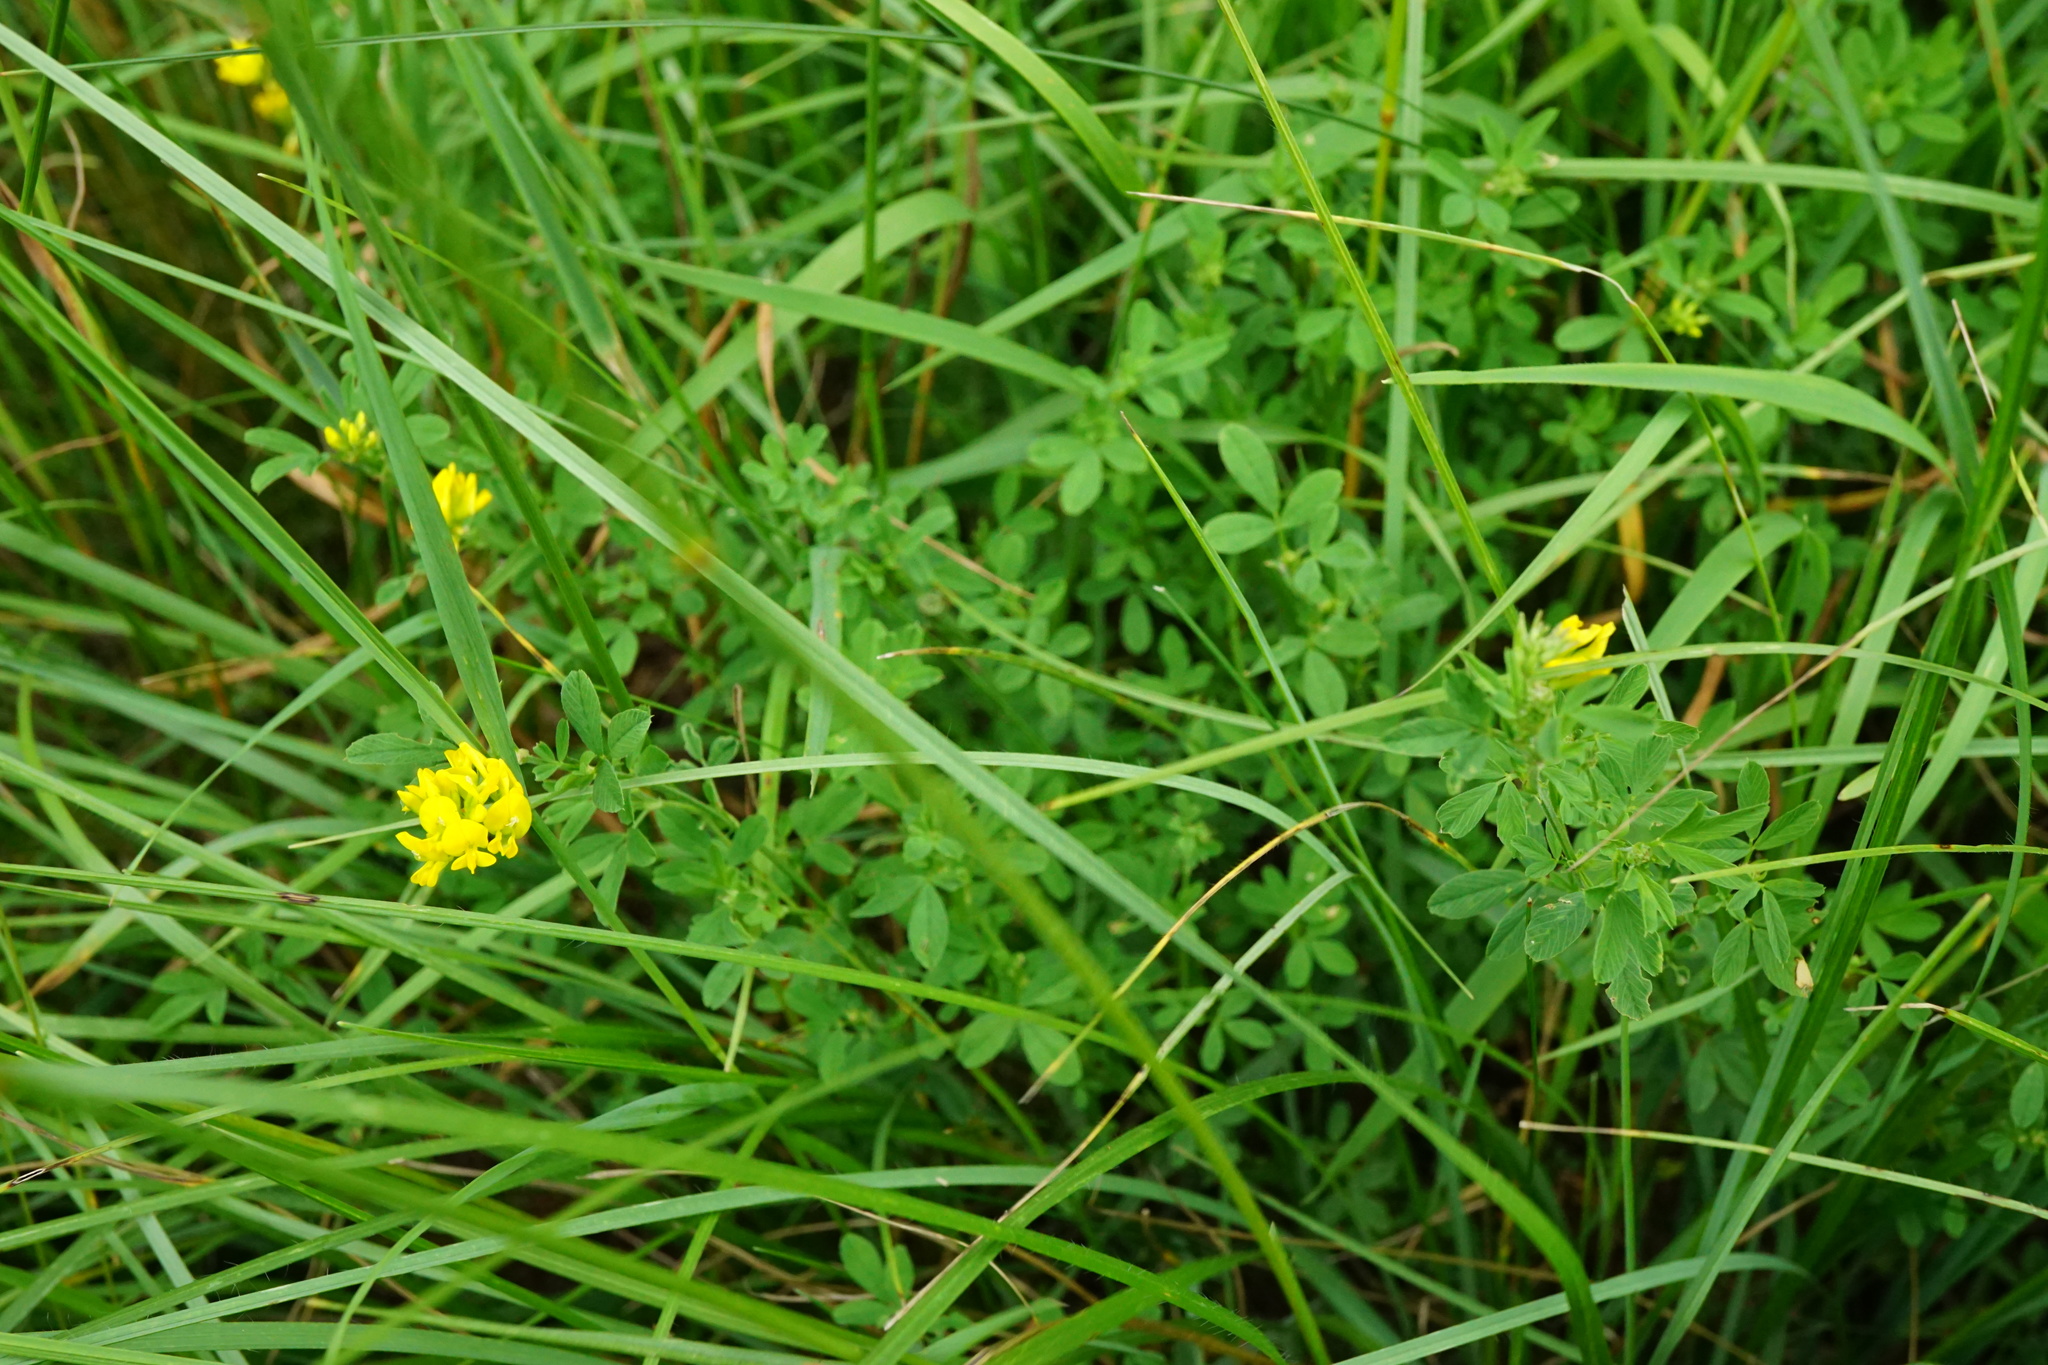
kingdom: Plantae
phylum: Tracheophyta
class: Magnoliopsida
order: Fabales
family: Fabaceae
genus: Medicago
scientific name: Medicago falcata
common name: Sickle medick
